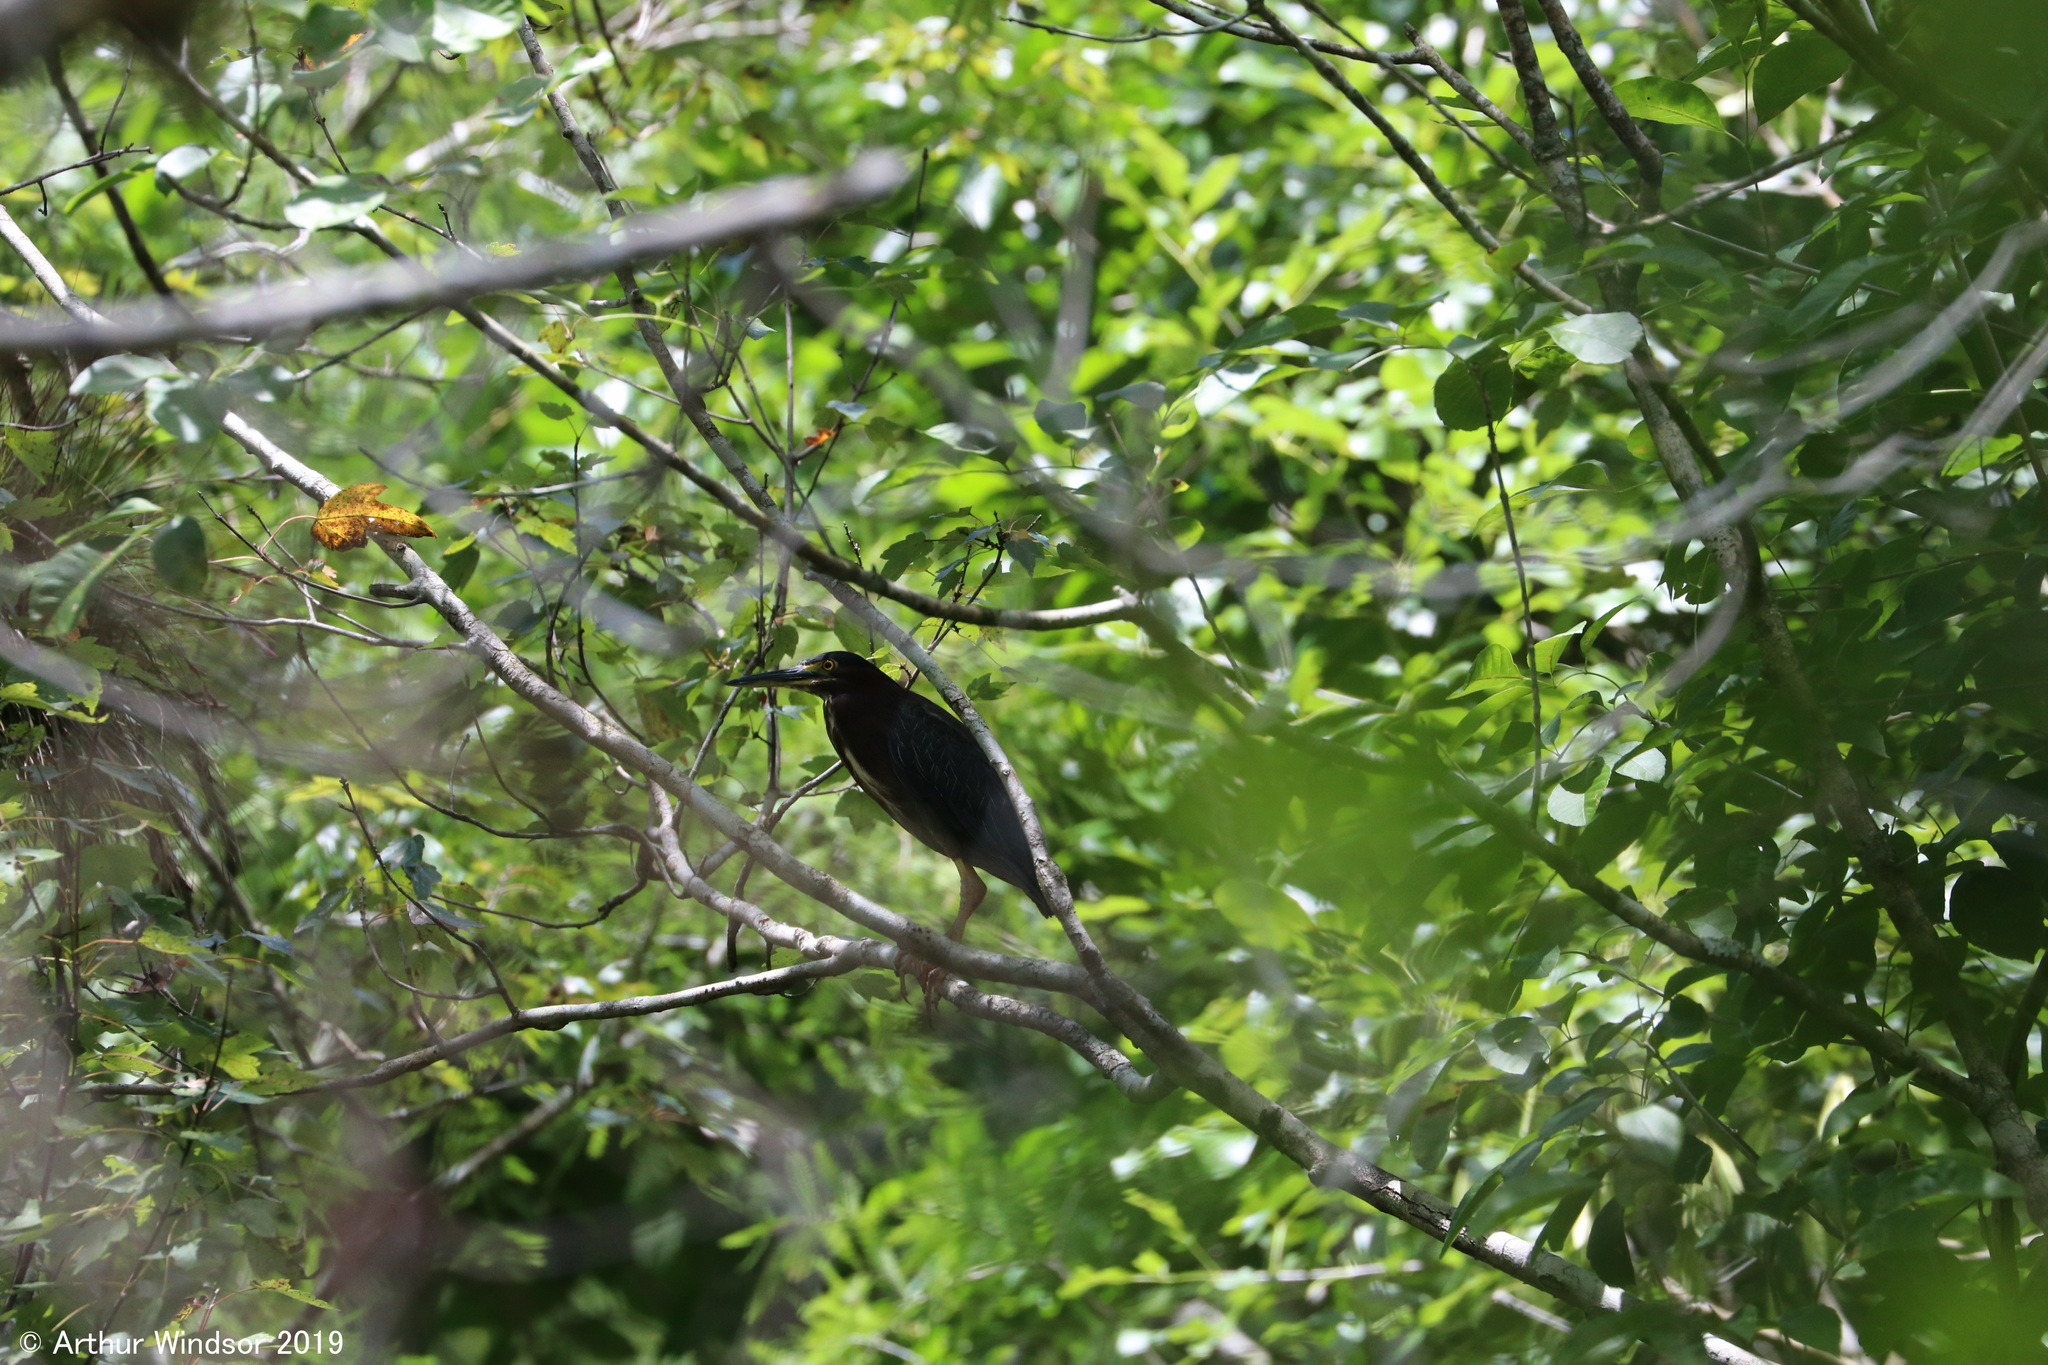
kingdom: Animalia
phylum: Chordata
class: Aves
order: Pelecaniformes
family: Ardeidae
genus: Butorides
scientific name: Butorides virescens
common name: Green heron
